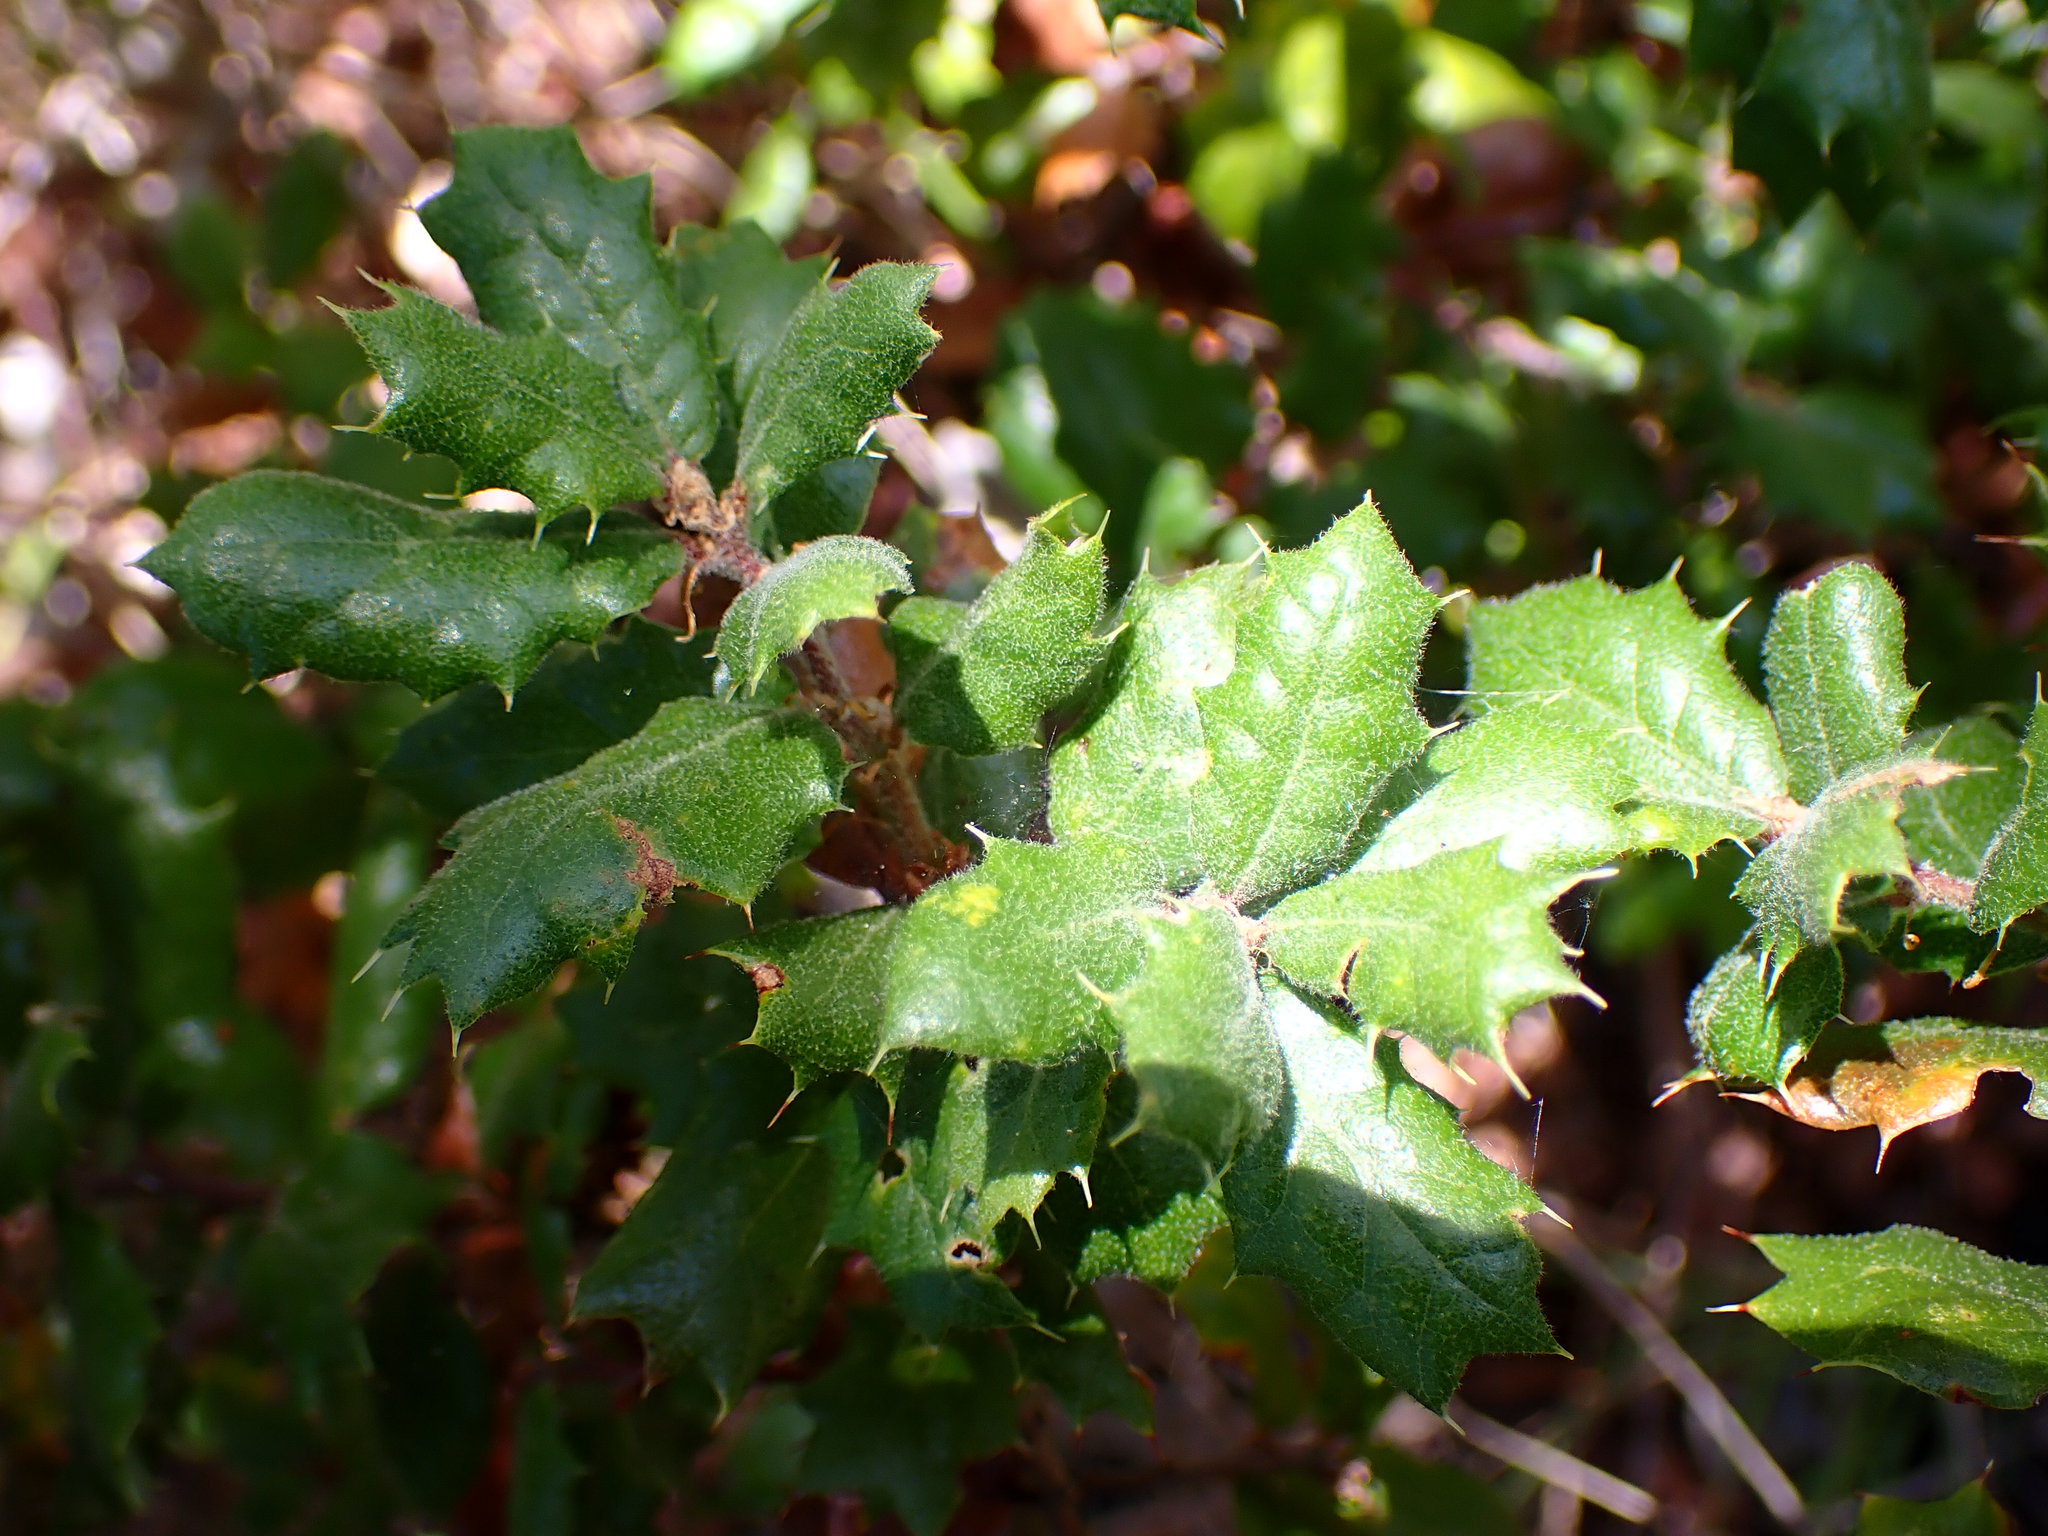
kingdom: Plantae
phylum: Tracheophyta
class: Magnoliopsida
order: Fagales
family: Fagaceae
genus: Quercus
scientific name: Quercus durata
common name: Leather oak
